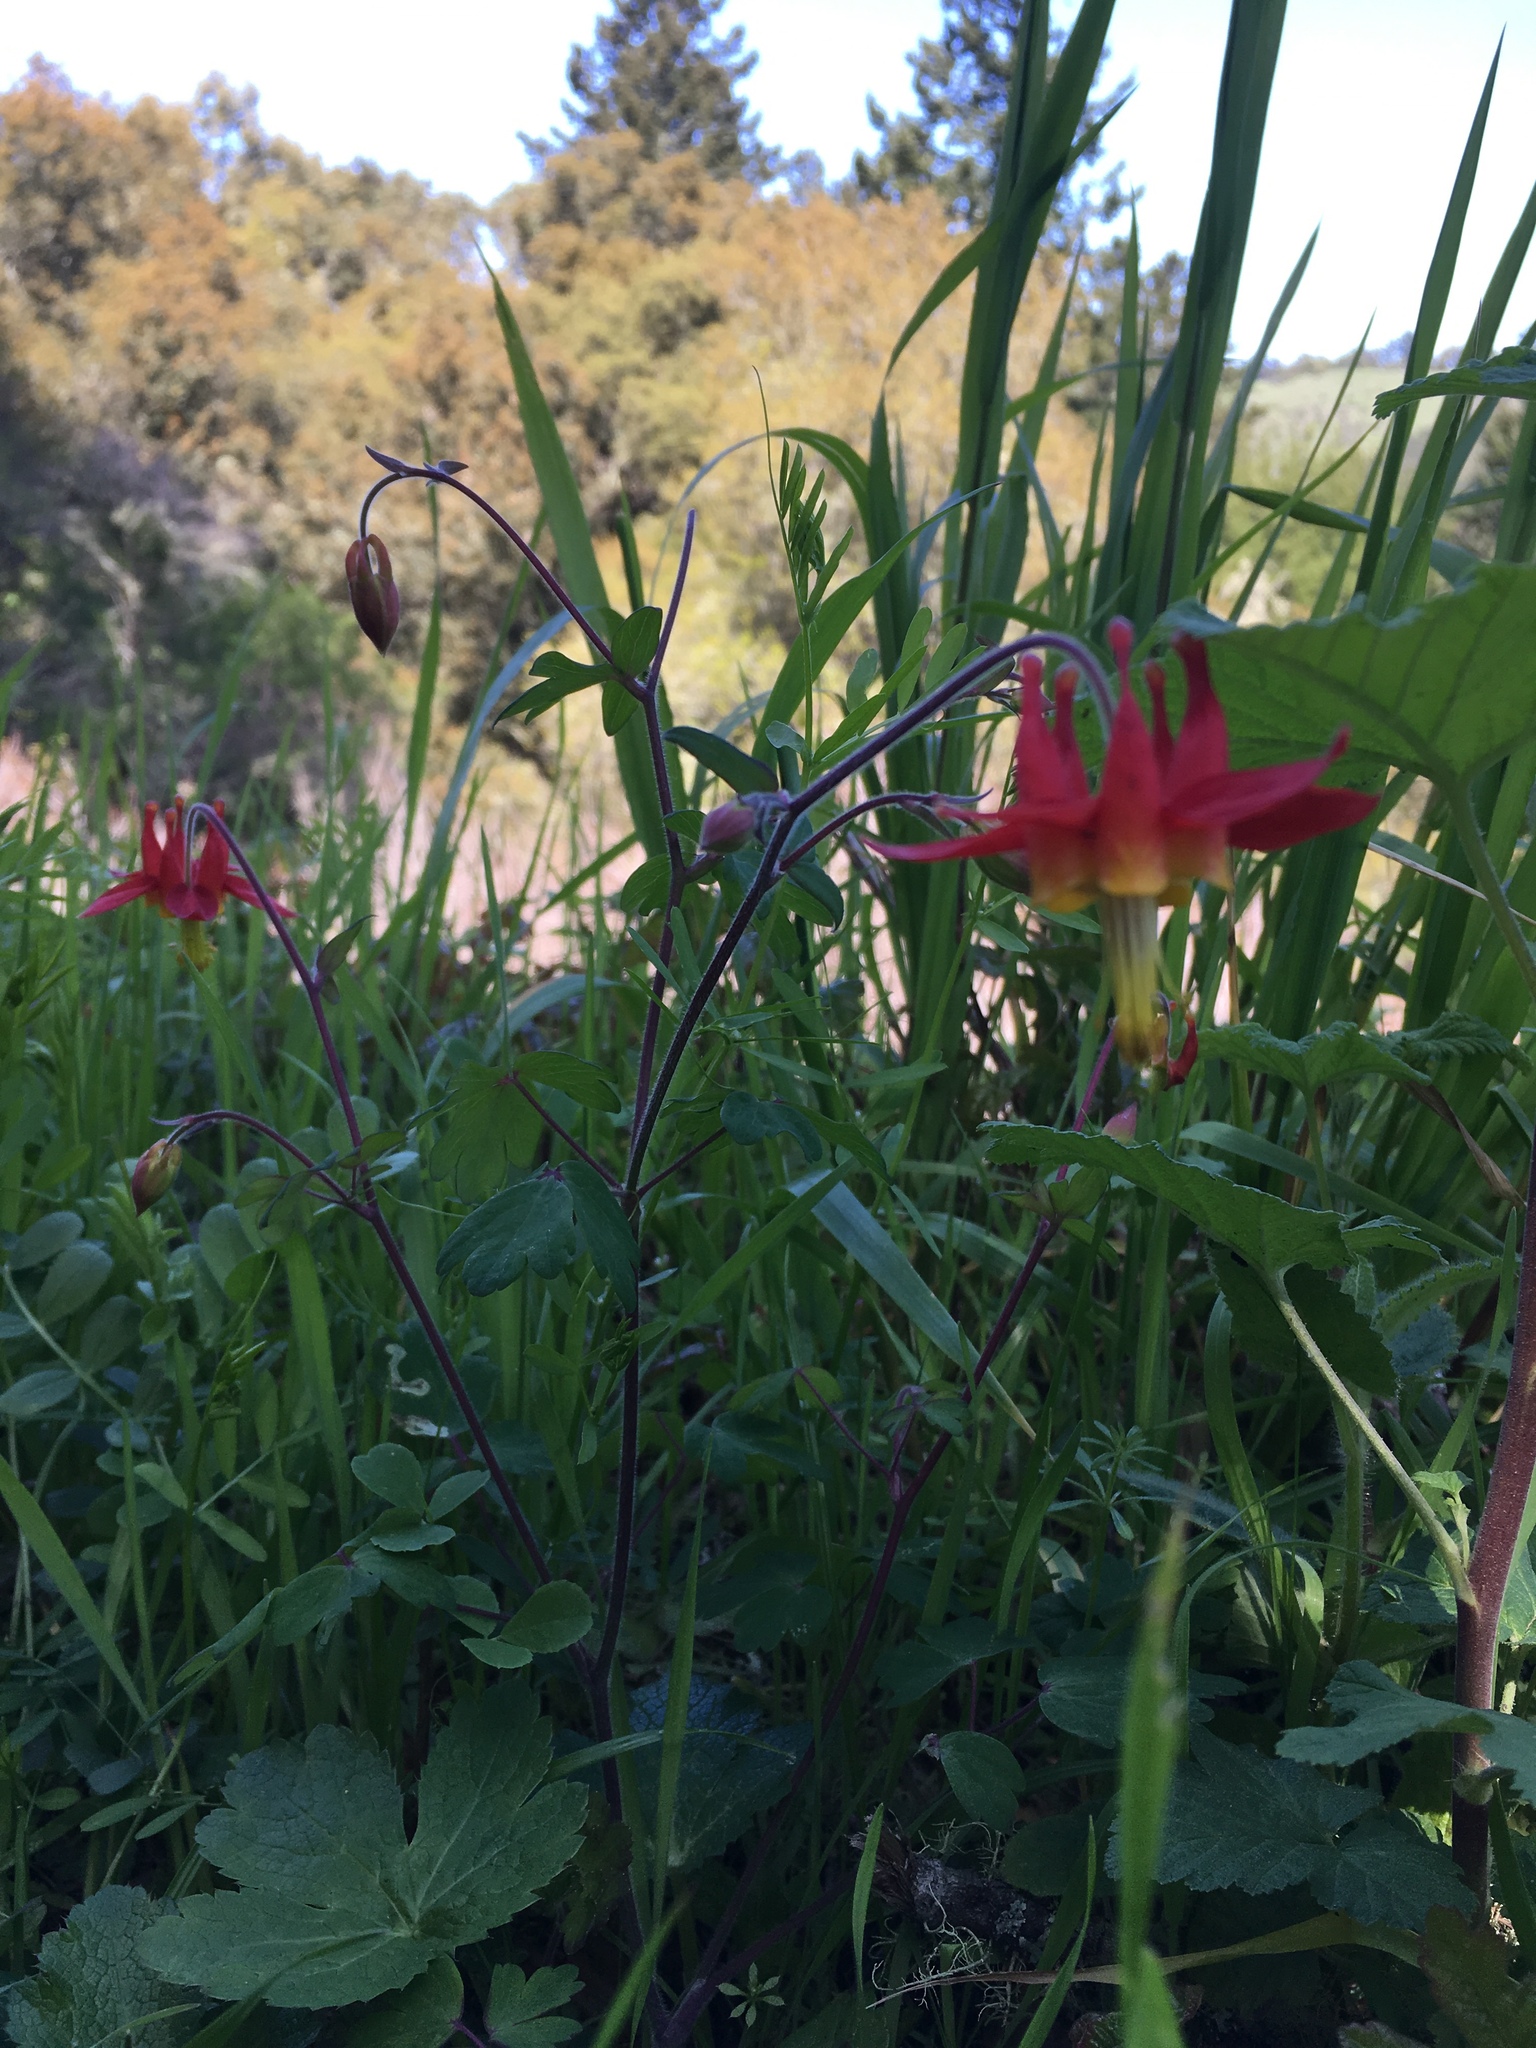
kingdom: Plantae
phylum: Tracheophyta
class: Magnoliopsida
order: Ranunculales
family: Ranunculaceae
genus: Aquilegia
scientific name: Aquilegia formosa
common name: Sitka columbine
